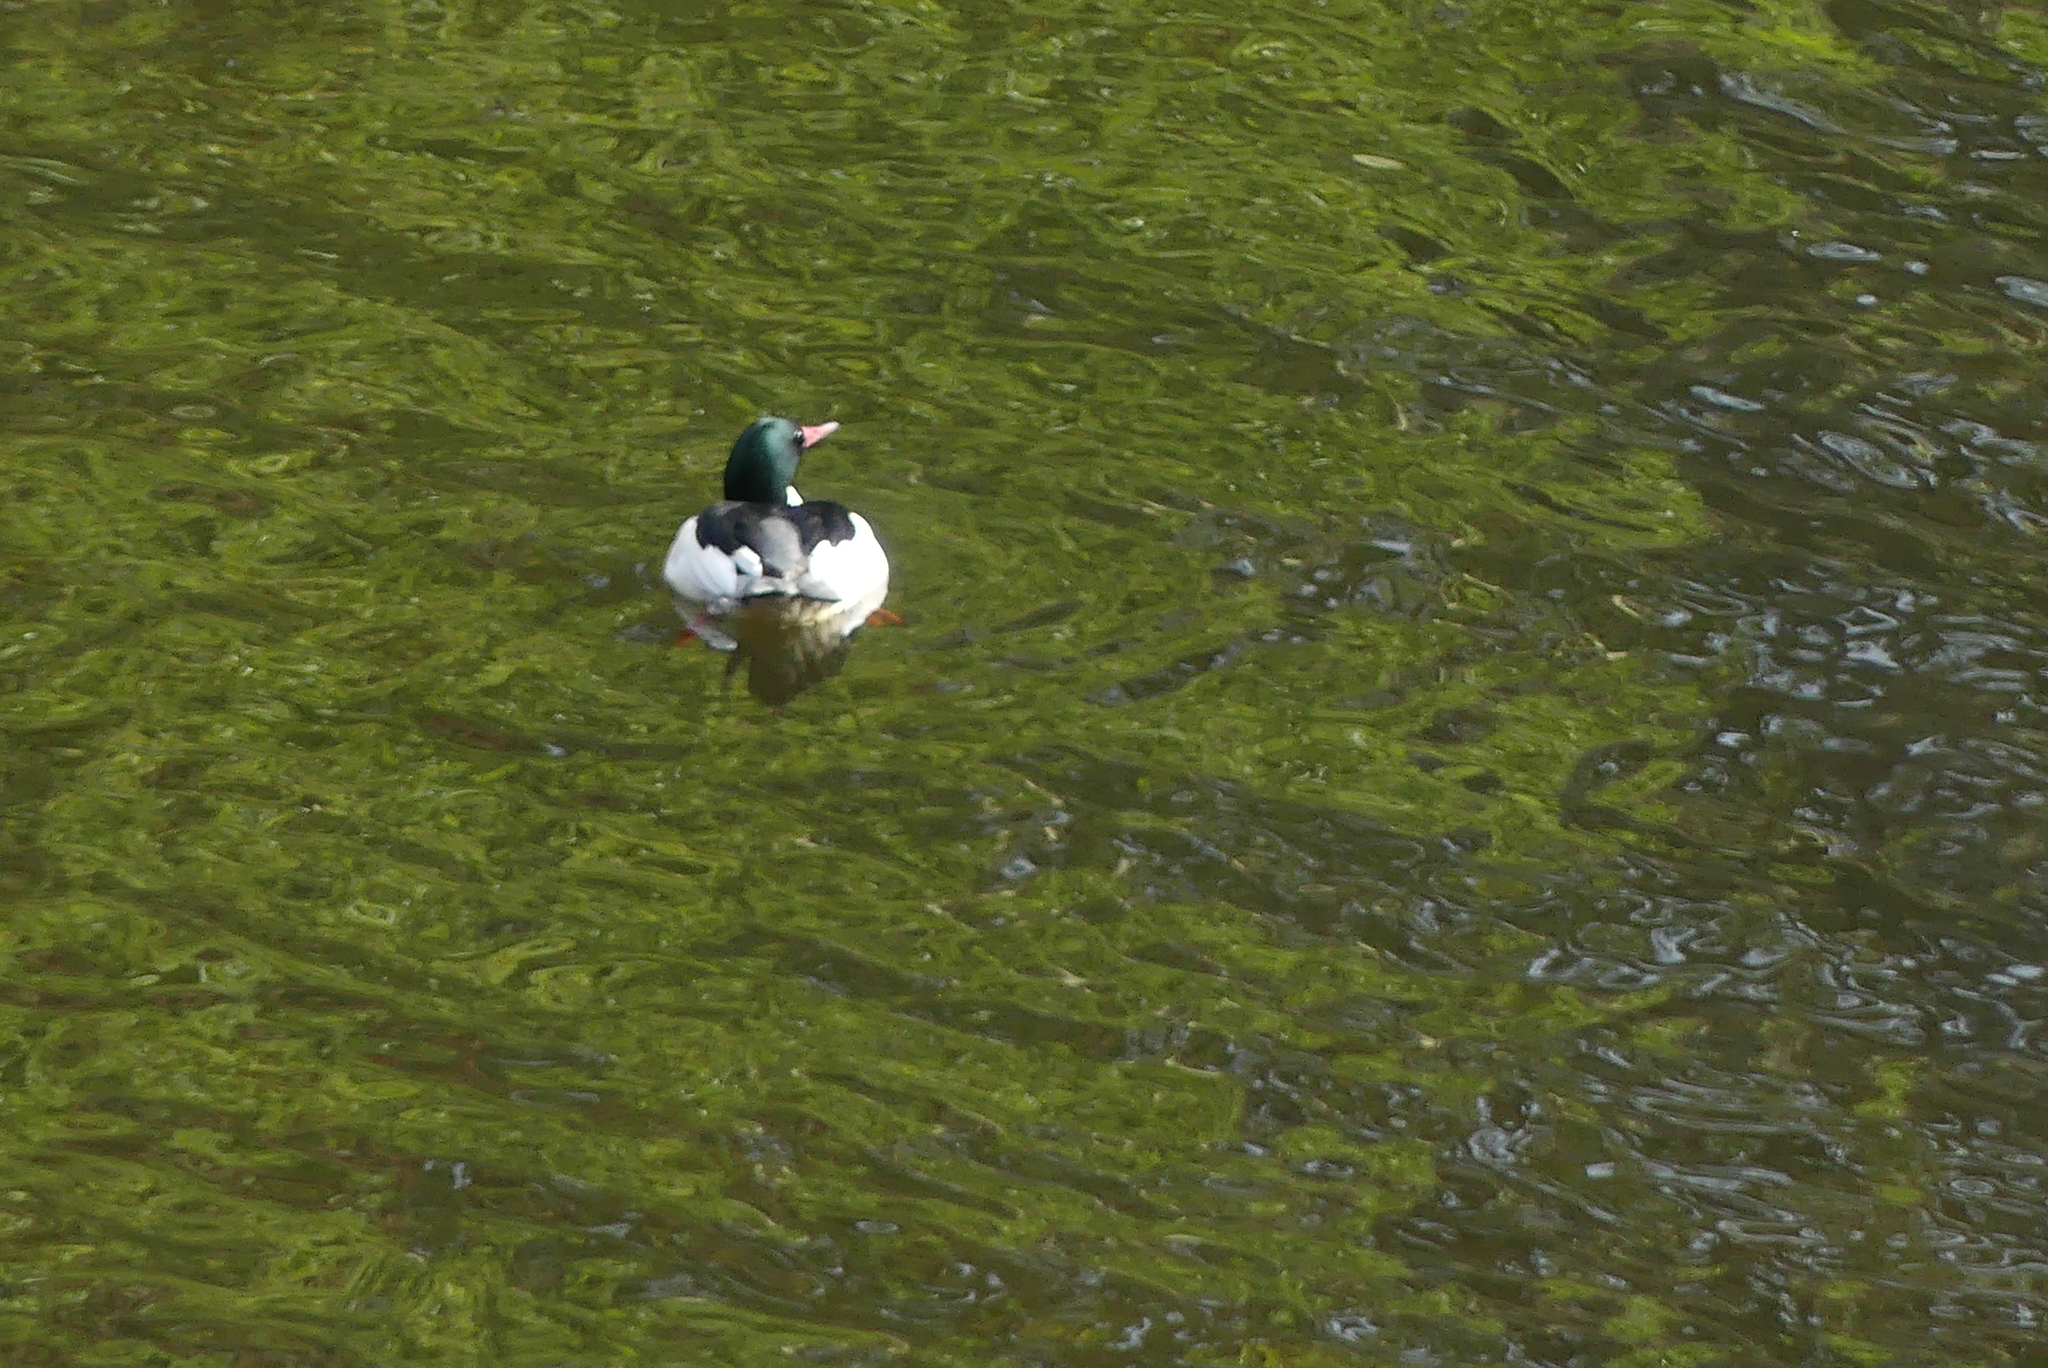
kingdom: Animalia
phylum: Chordata
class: Aves
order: Anseriformes
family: Anatidae
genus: Mergus
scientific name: Mergus merganser
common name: Common merganser
